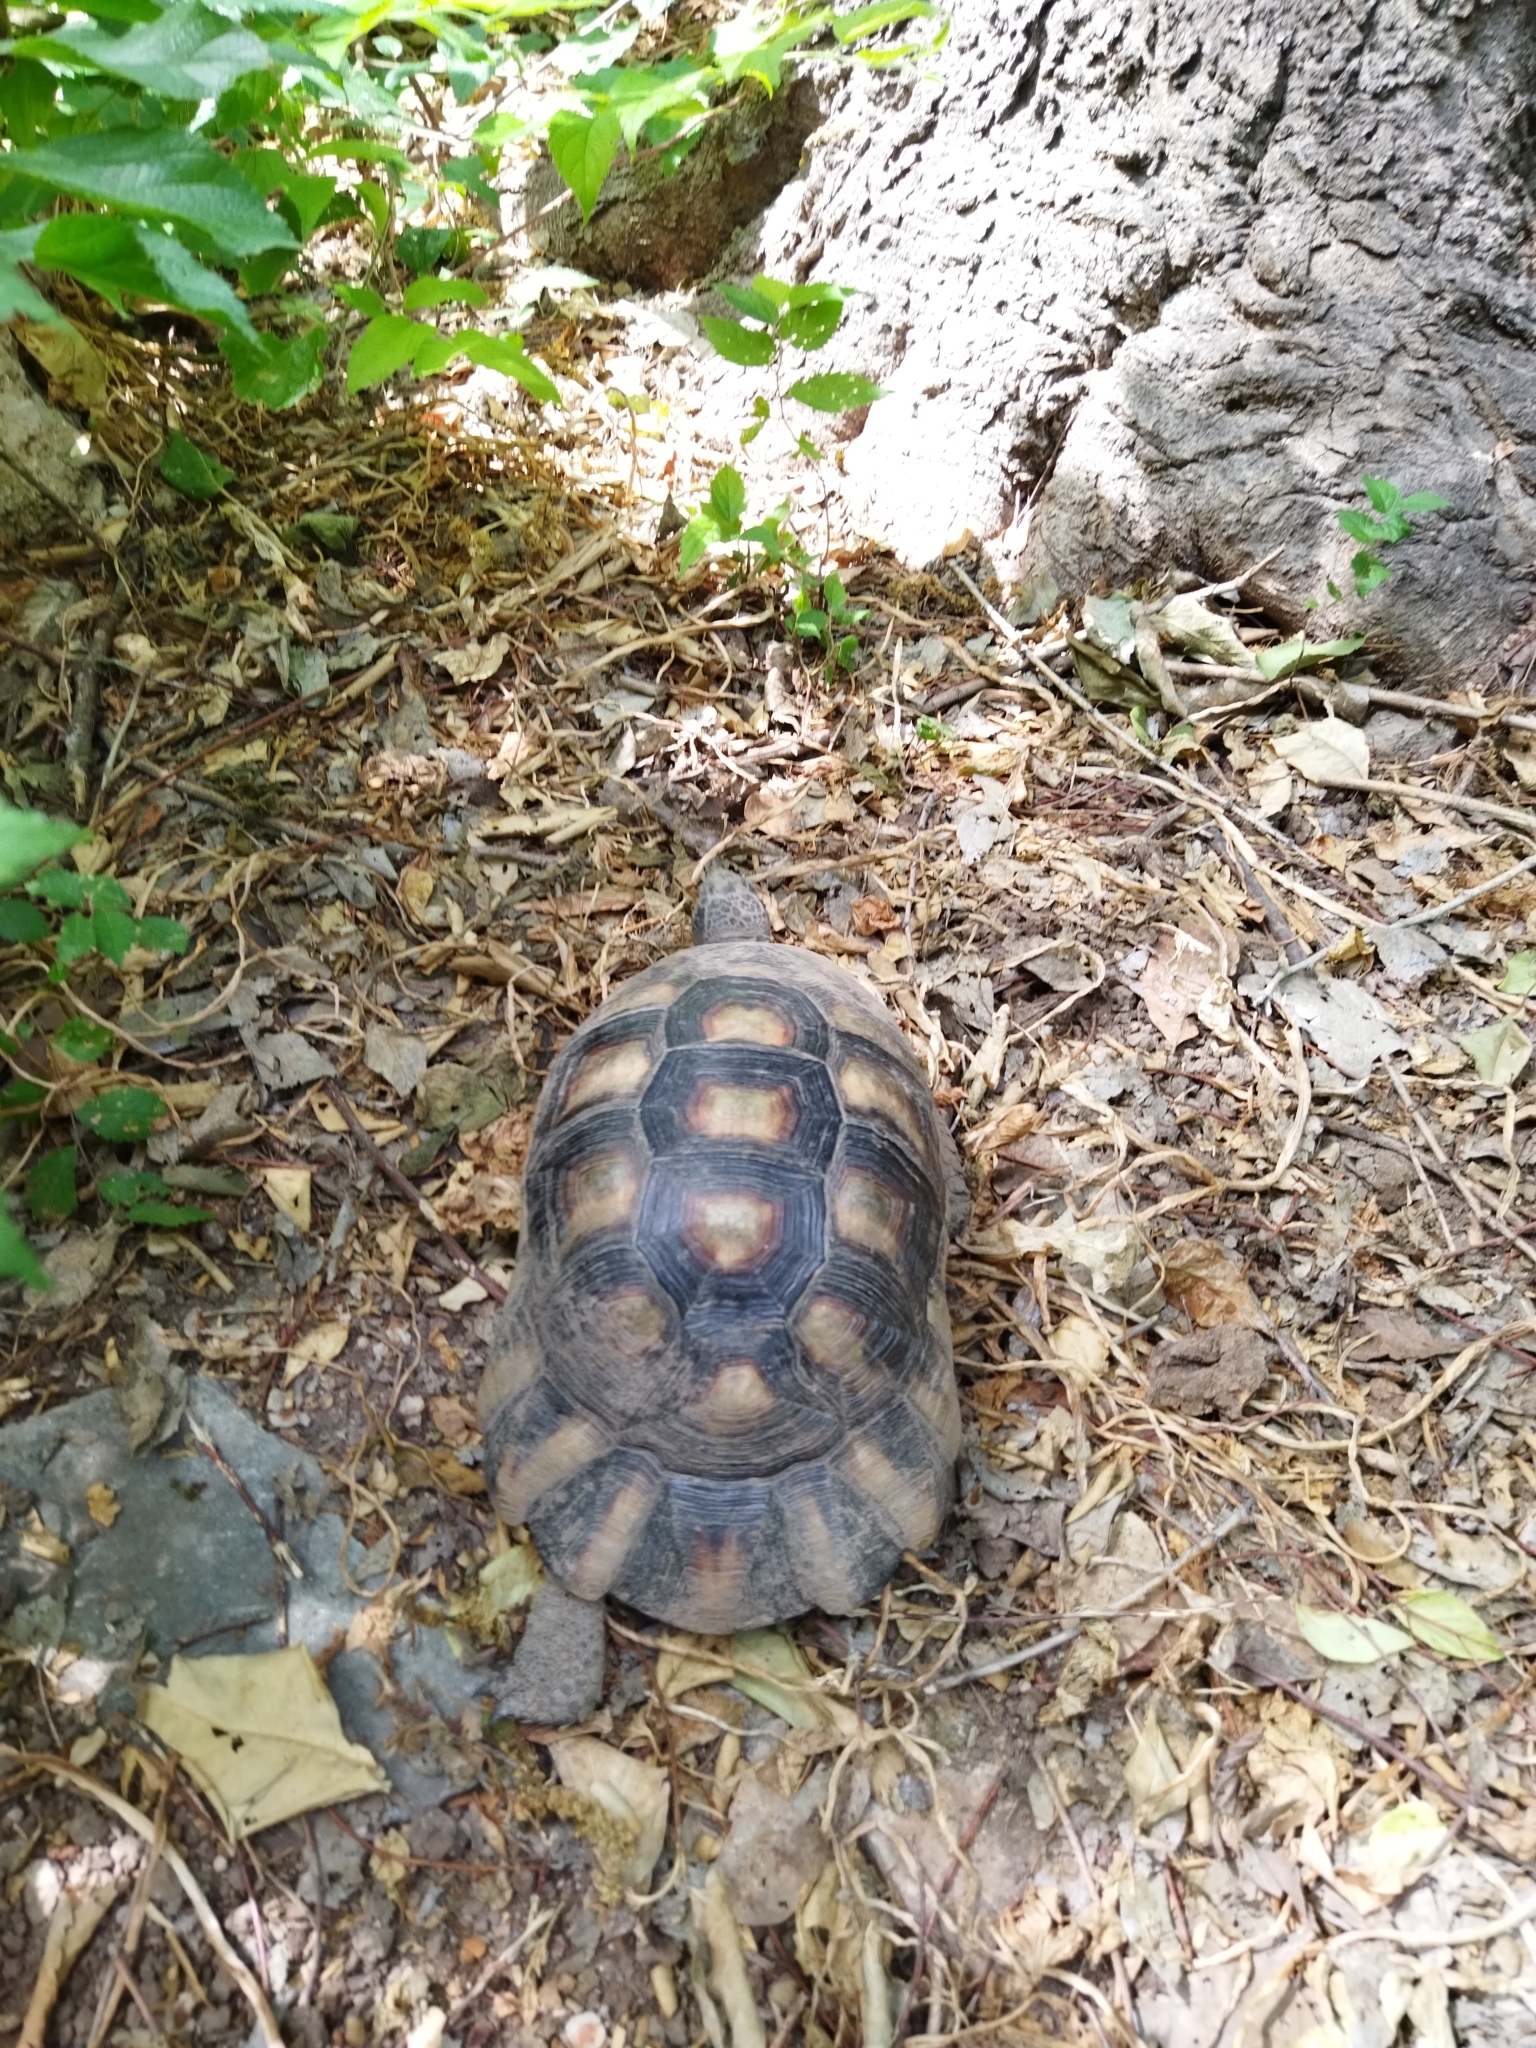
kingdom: Animalia
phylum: Chordata
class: Testudines
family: Testudinidae
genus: Testudo
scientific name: Testudo marginata
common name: Marginated tortoise
